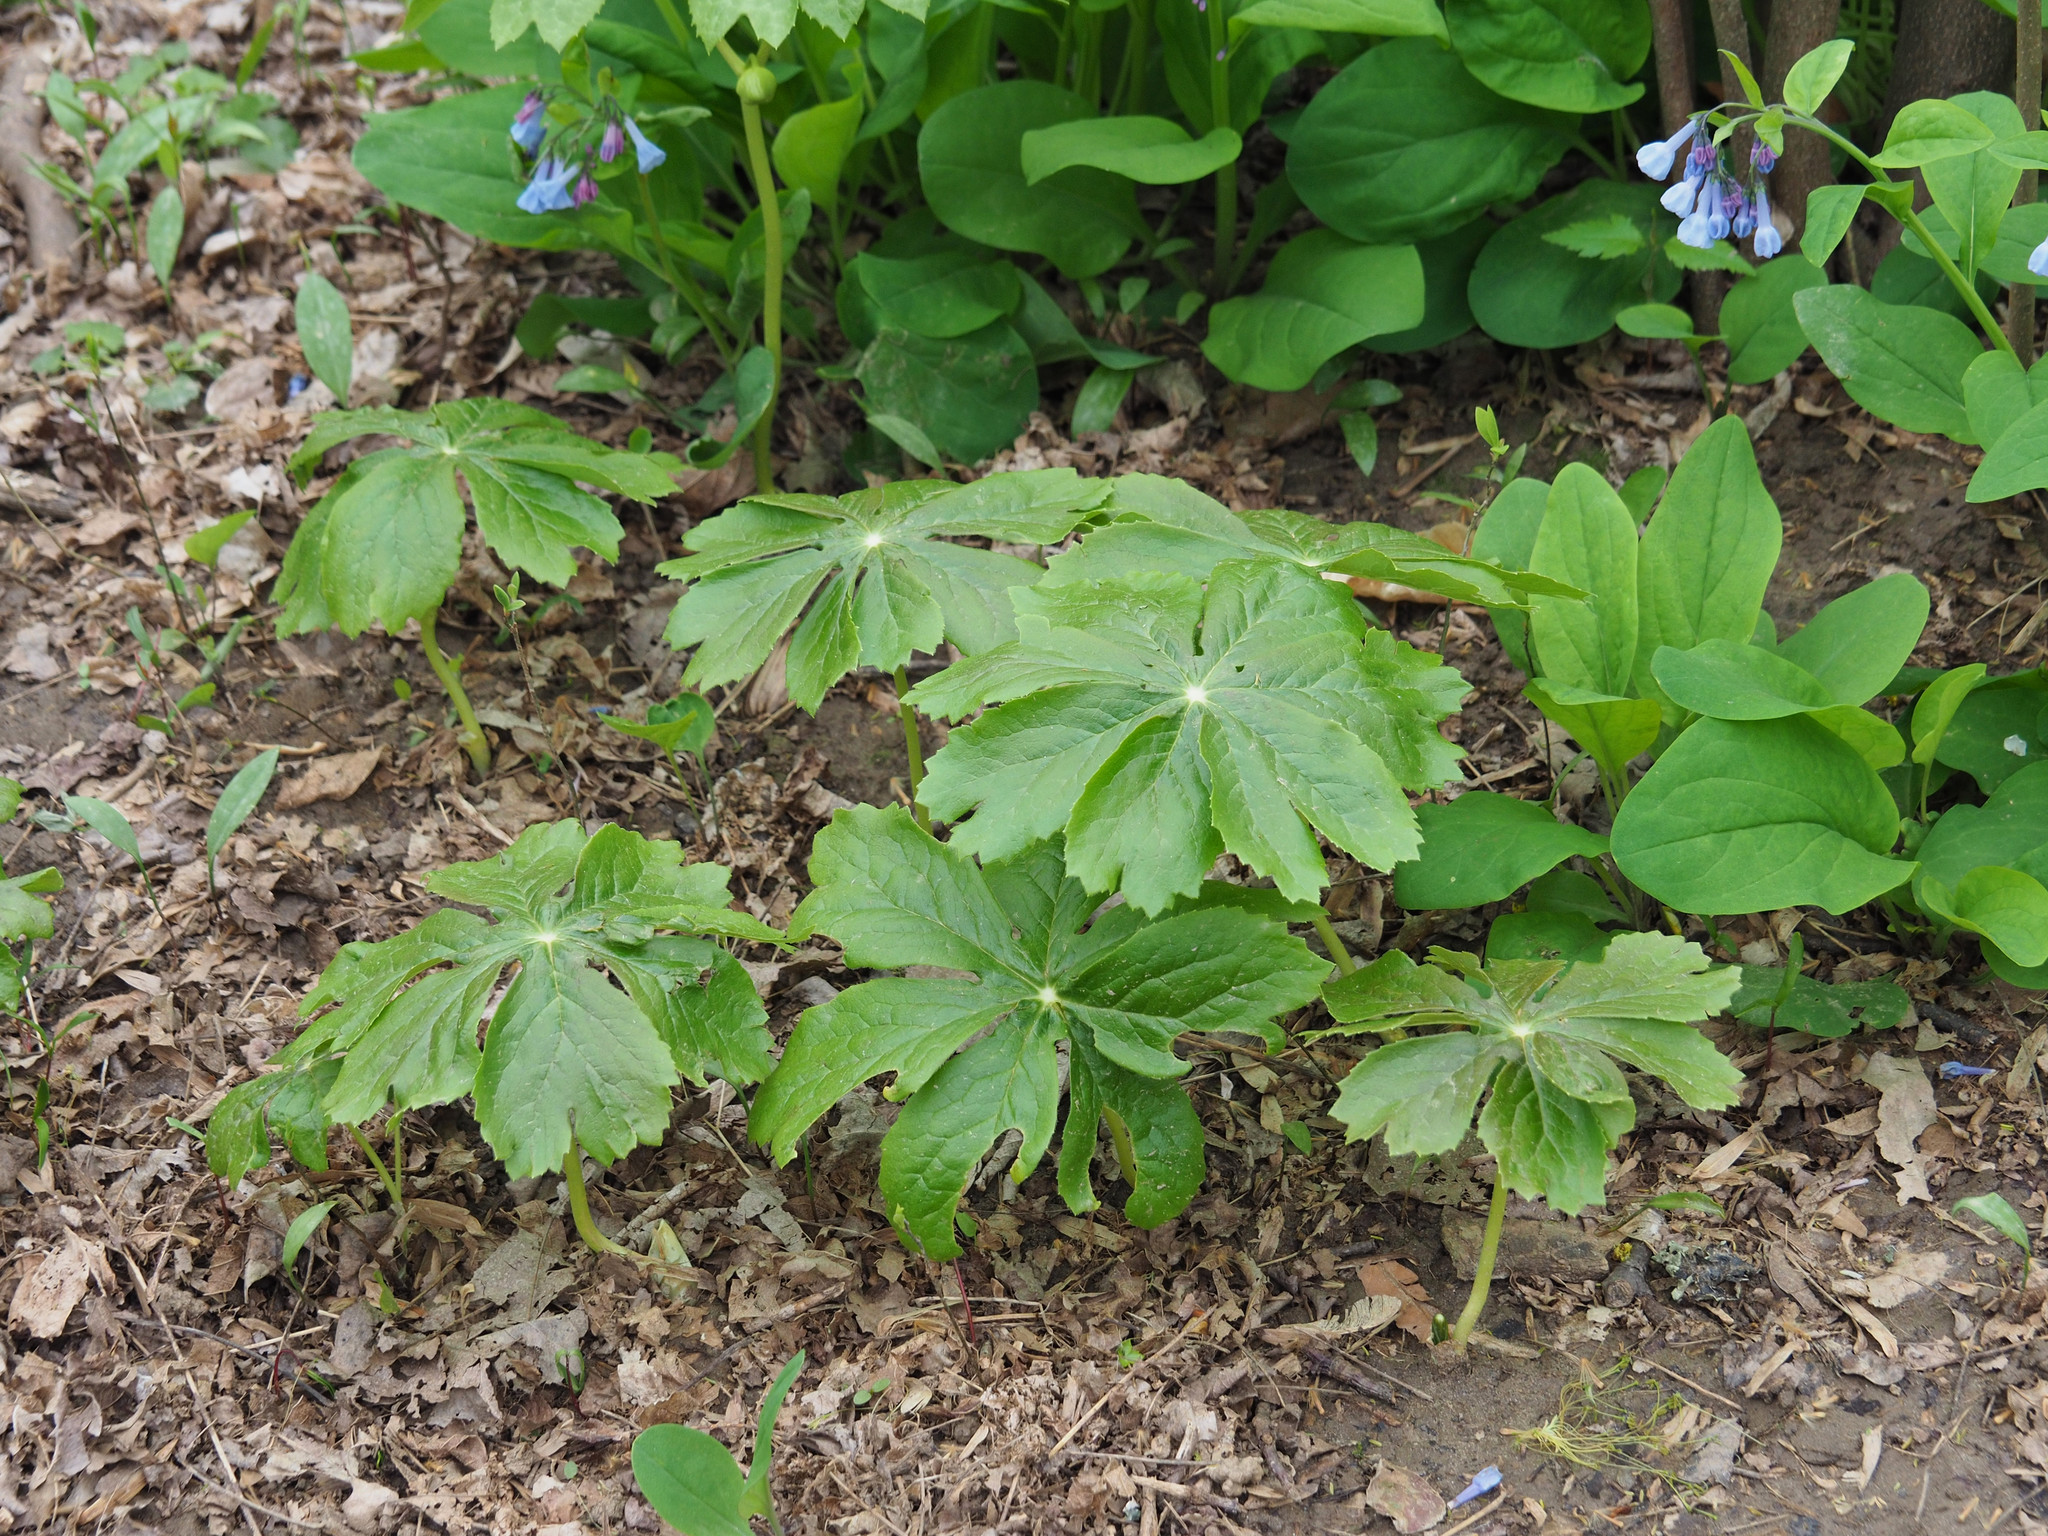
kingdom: Plantae
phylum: Tracheophyta
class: Magnoliopsida
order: Ranunculales
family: Berberidaceae
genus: Podophyllum
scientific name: Podophyllum peltatum
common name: Wild mandrake
